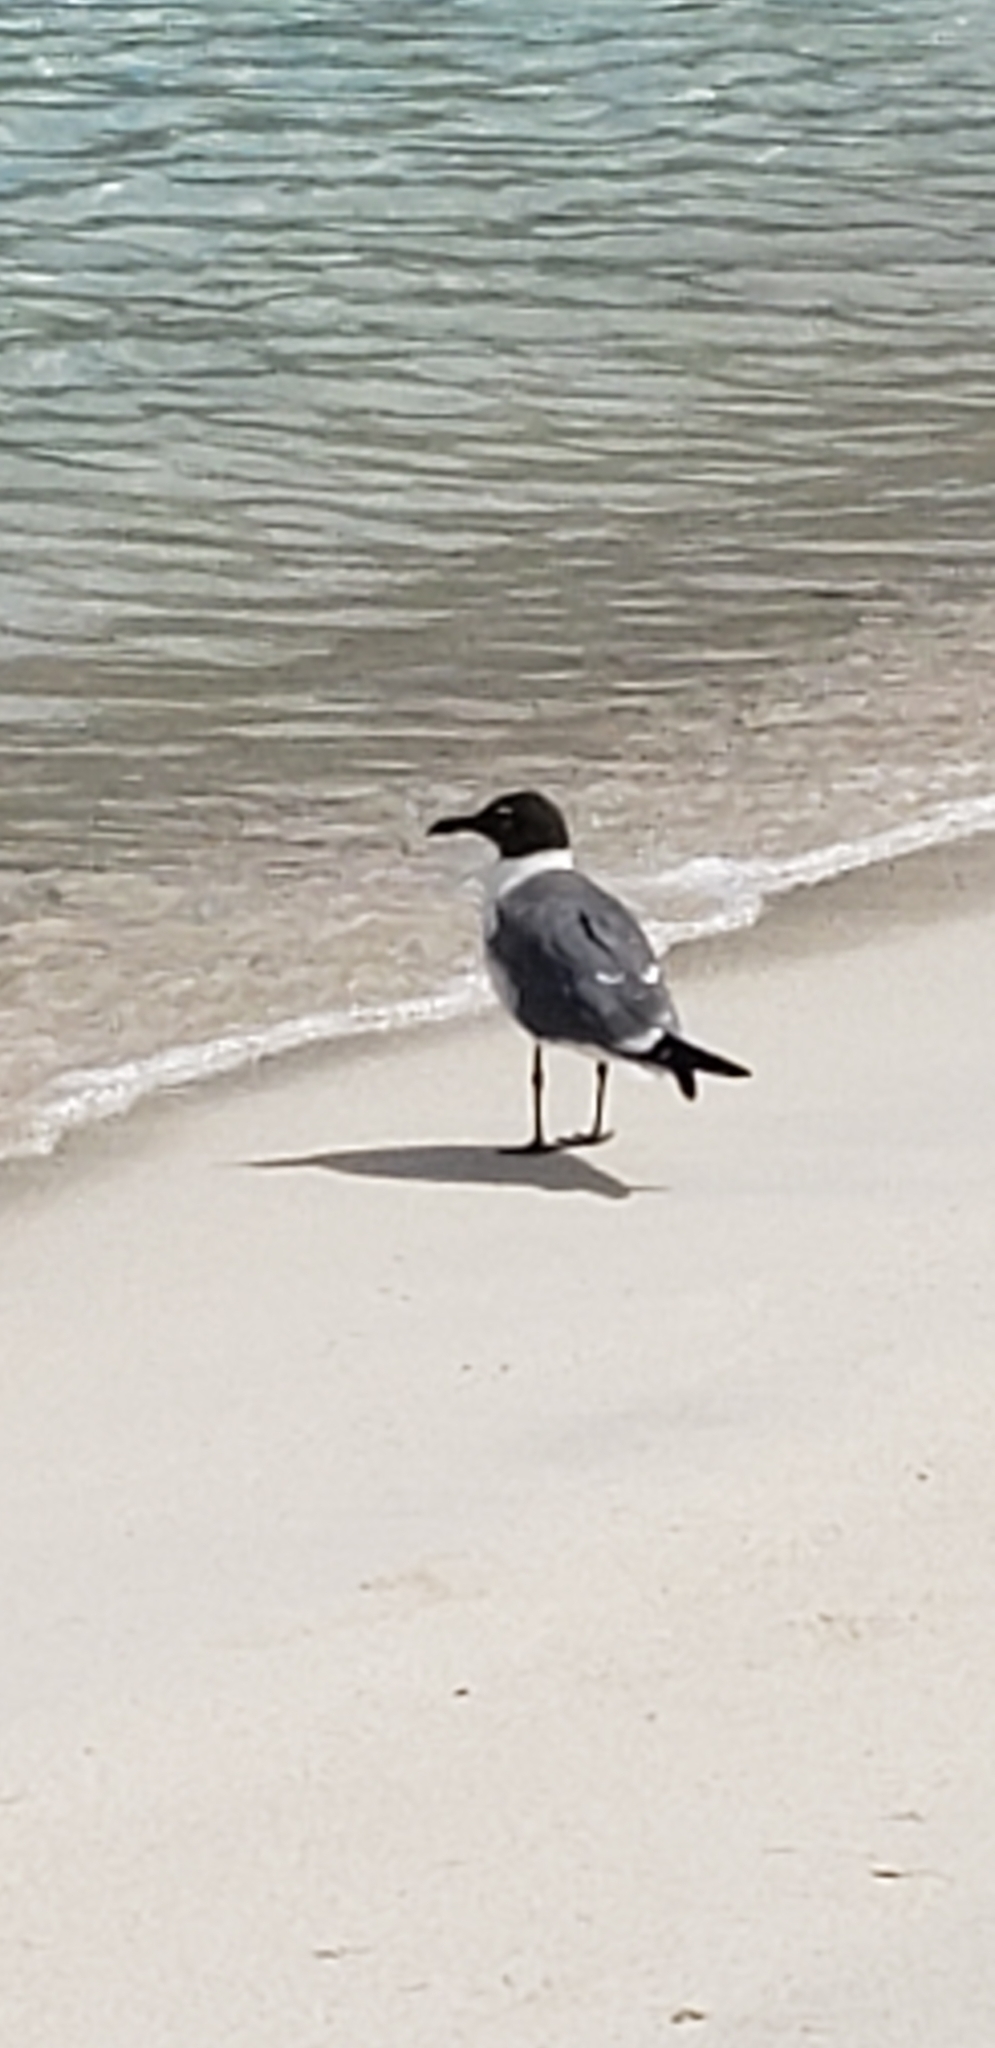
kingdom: Animalia
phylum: Chordata
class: Aves
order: Charadriiformes
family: Laridae
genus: Leucophaeus
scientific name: Leucophaeus atricilla
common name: Laughing gull
